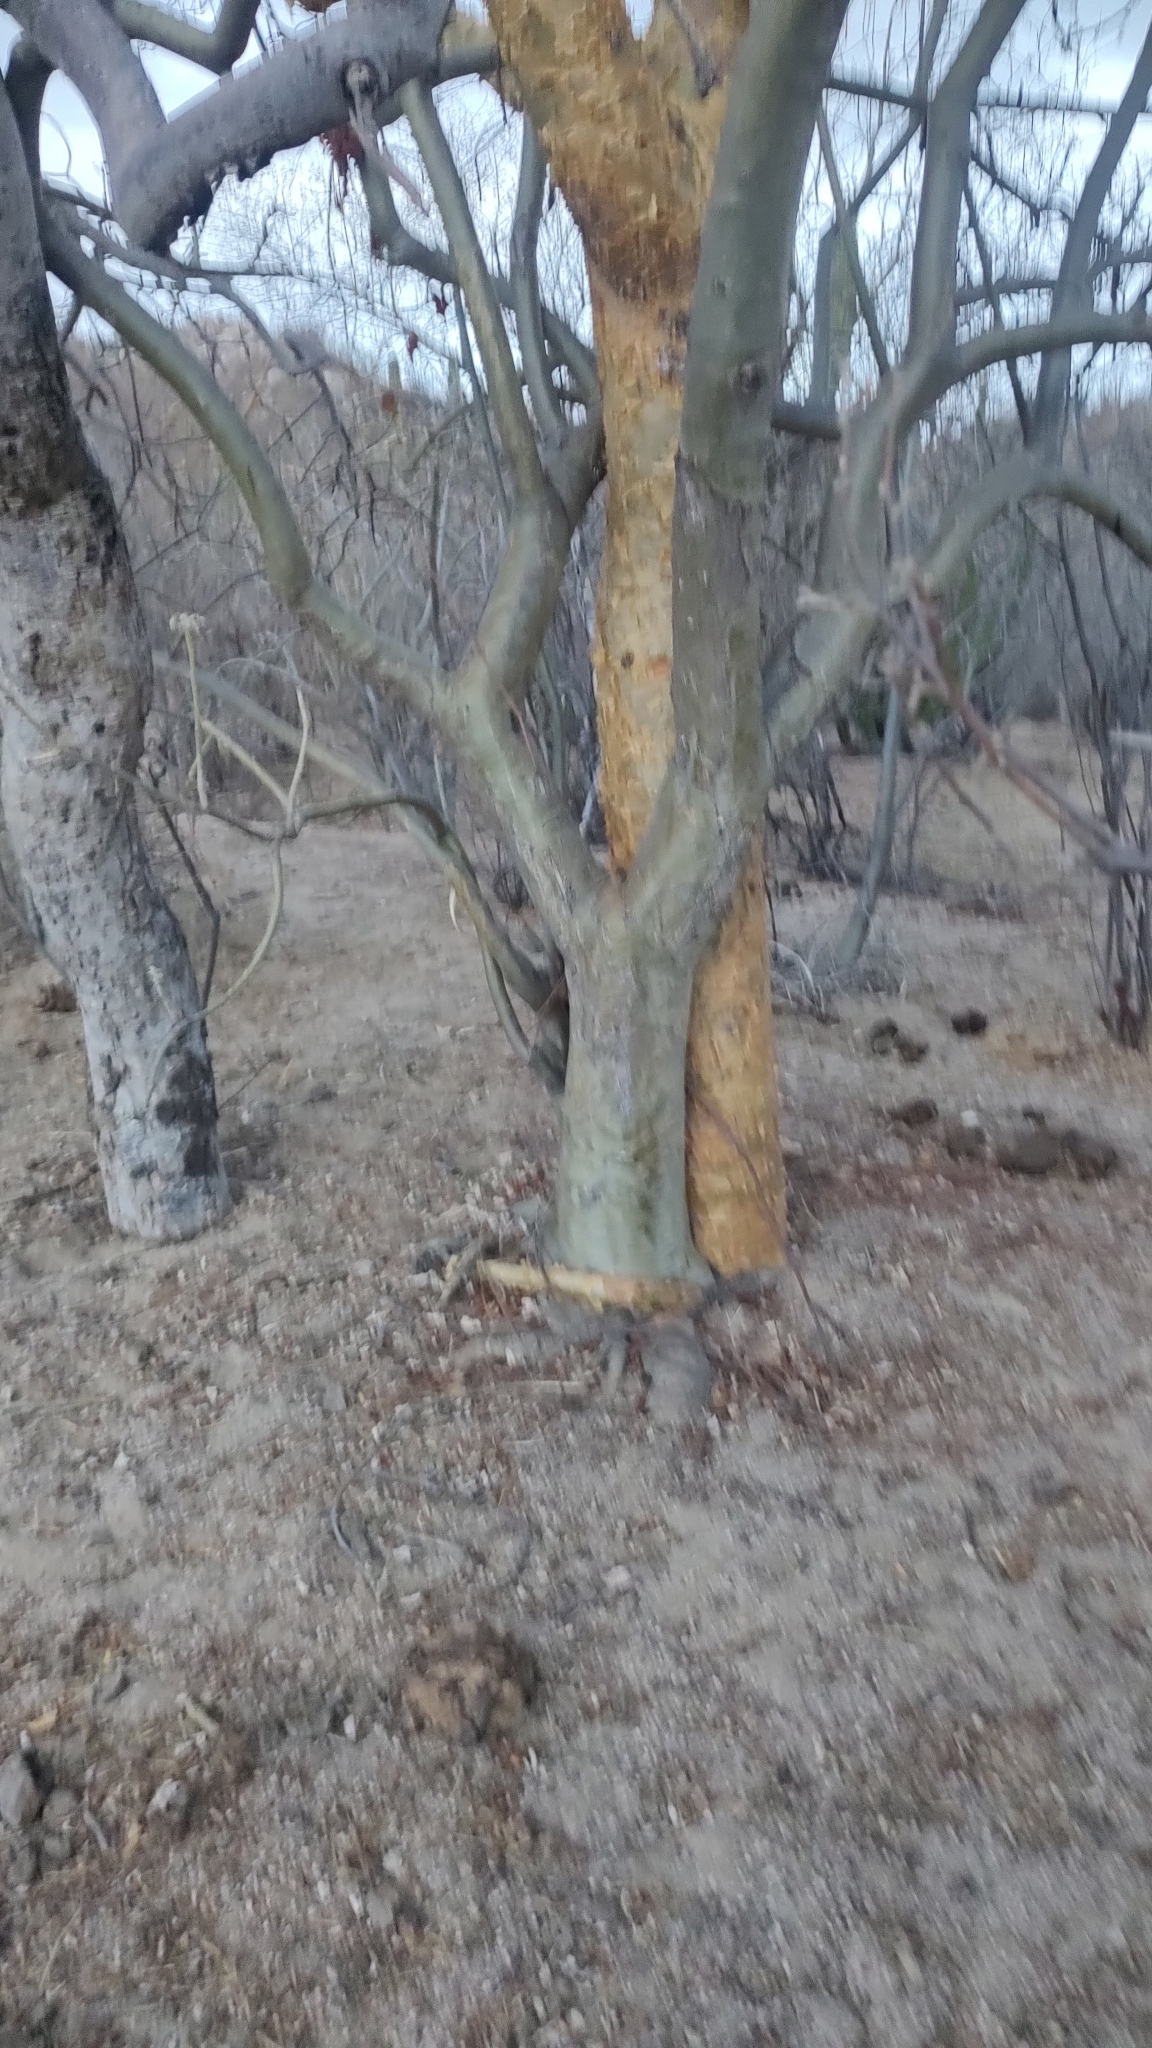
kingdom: Plantae
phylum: Tracheophyta
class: Magnoliopsida
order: Malpighiales
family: Euphorbiaceae
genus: Jatropha
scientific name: Jatropha cinerea
